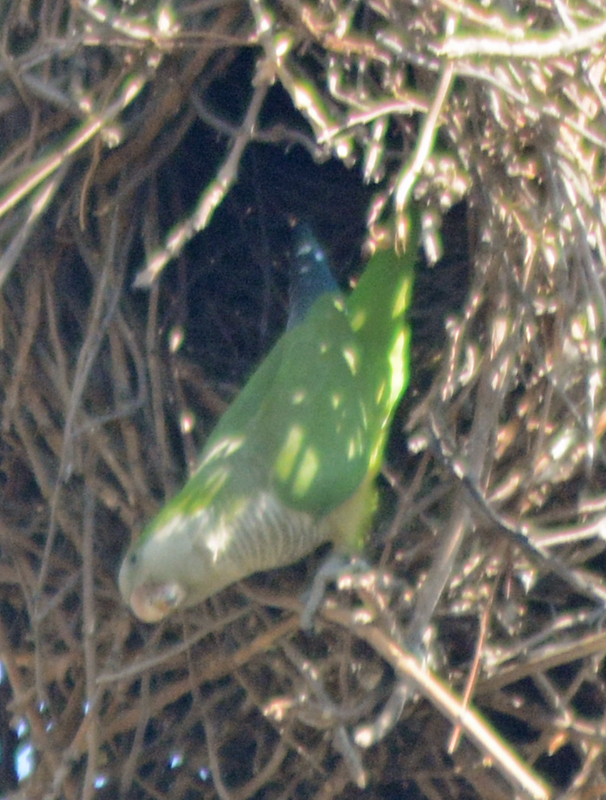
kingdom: Animalia
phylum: Chordata
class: Aves
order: Psittaciformes
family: Psittacidae
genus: Myiopsitta
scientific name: Myiopsitta monachus
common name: Monk parakeet
